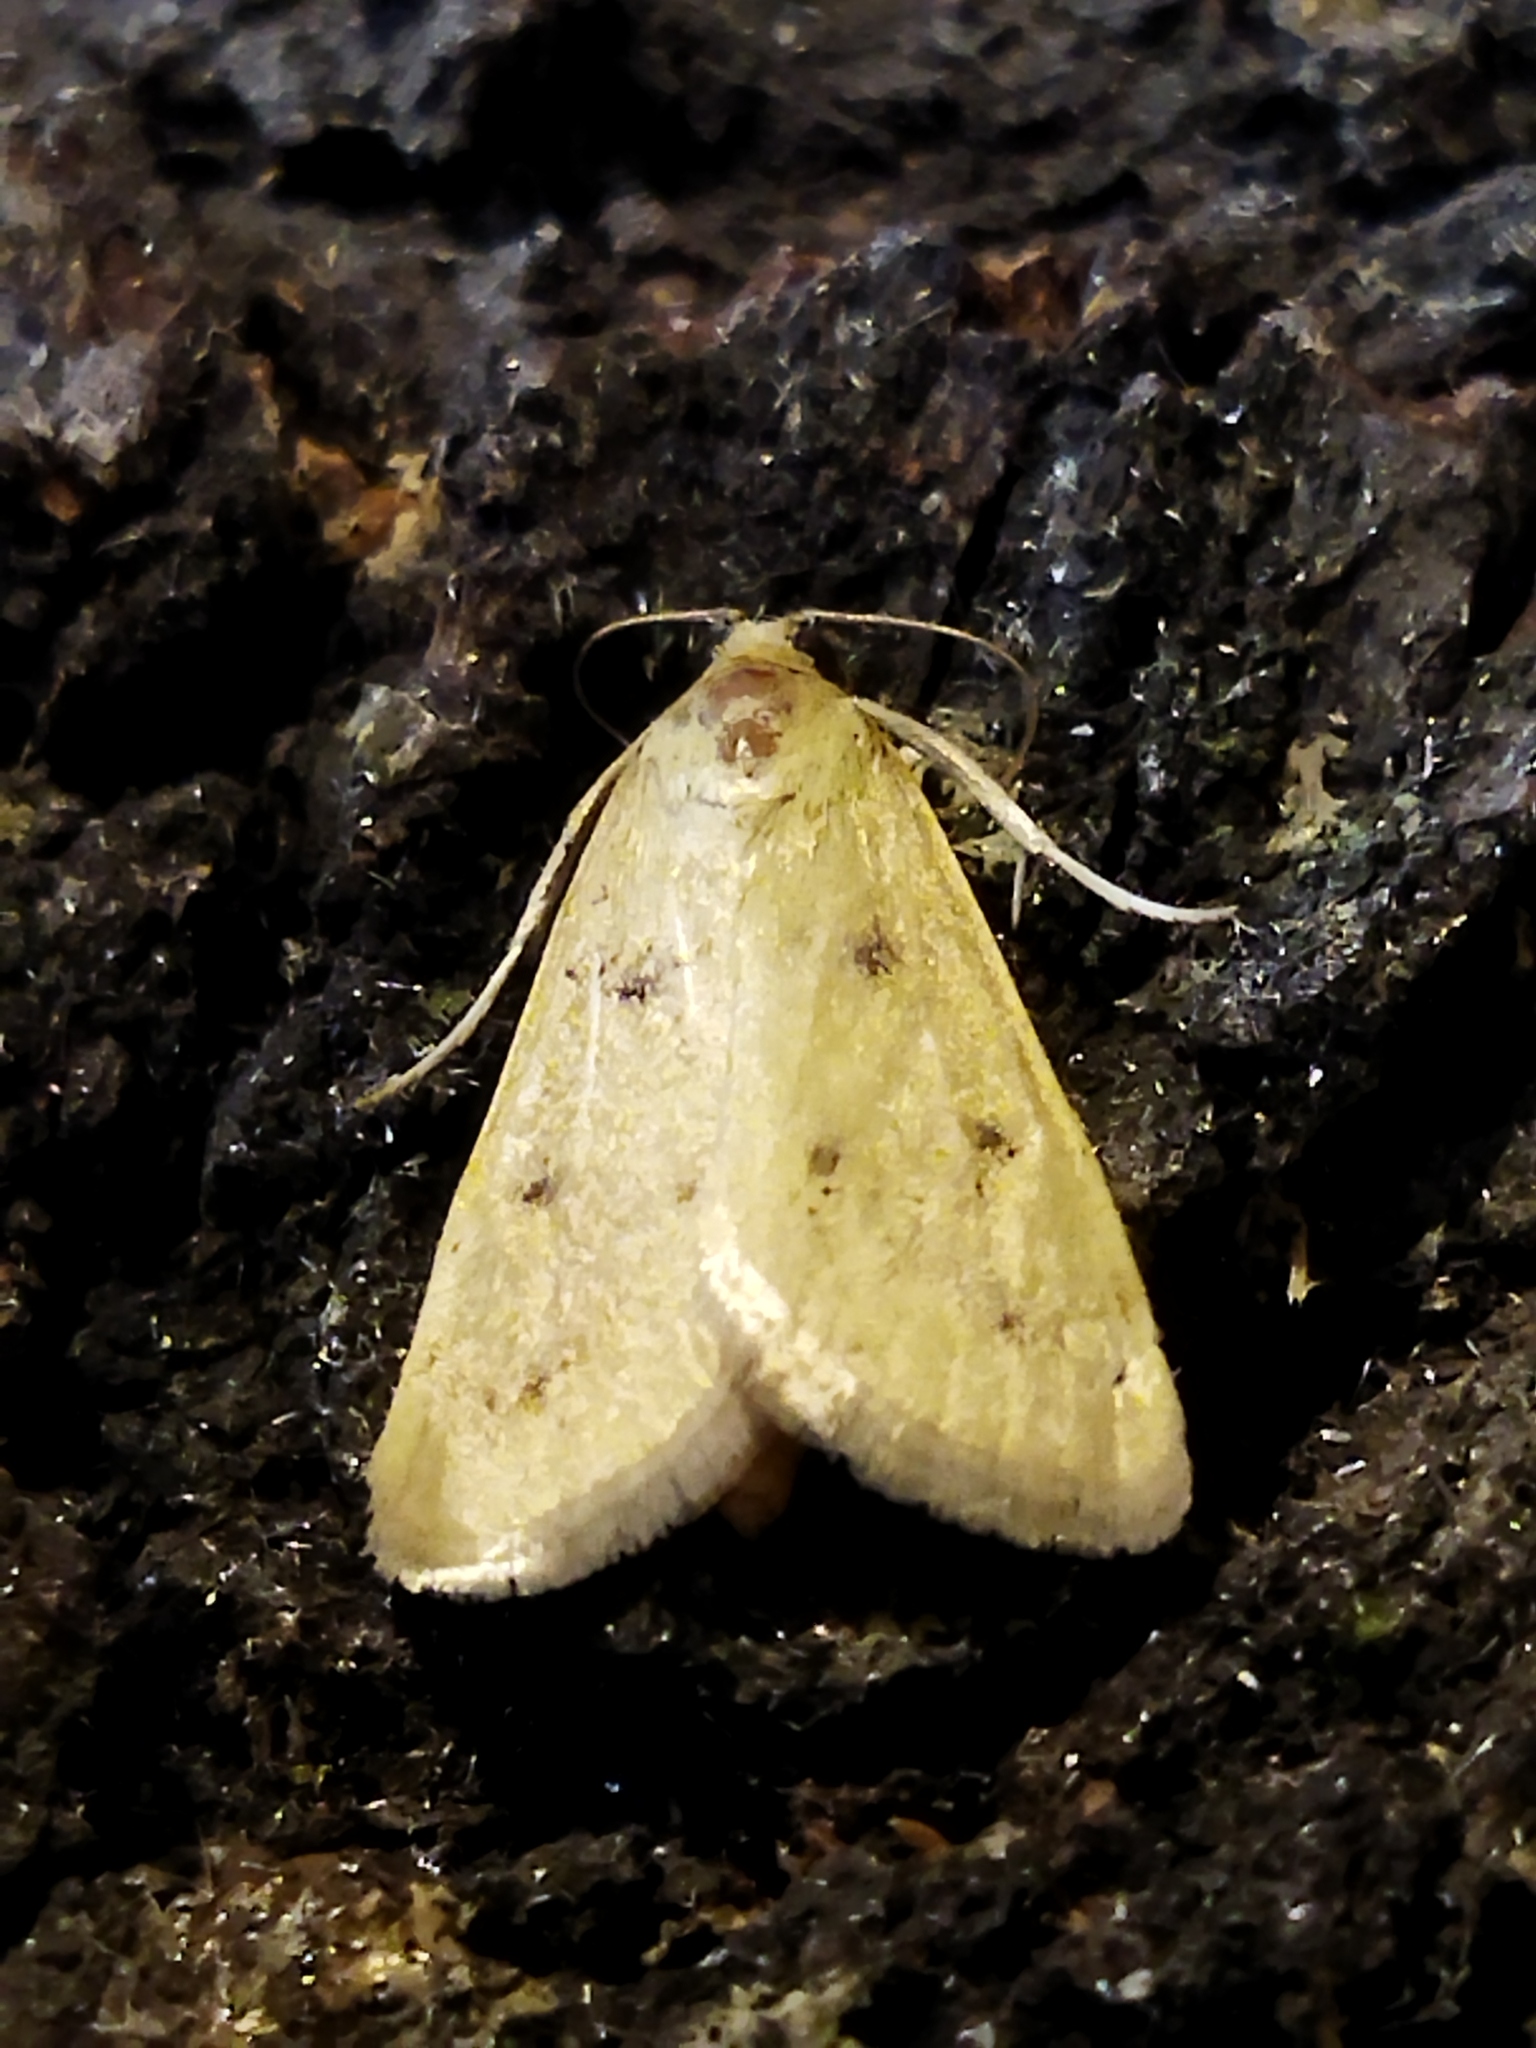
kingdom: Animalia
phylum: Arthropoda
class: Insecta
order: Lepidoptera
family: Crambidae
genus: Achyra
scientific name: Achyra nudalis
